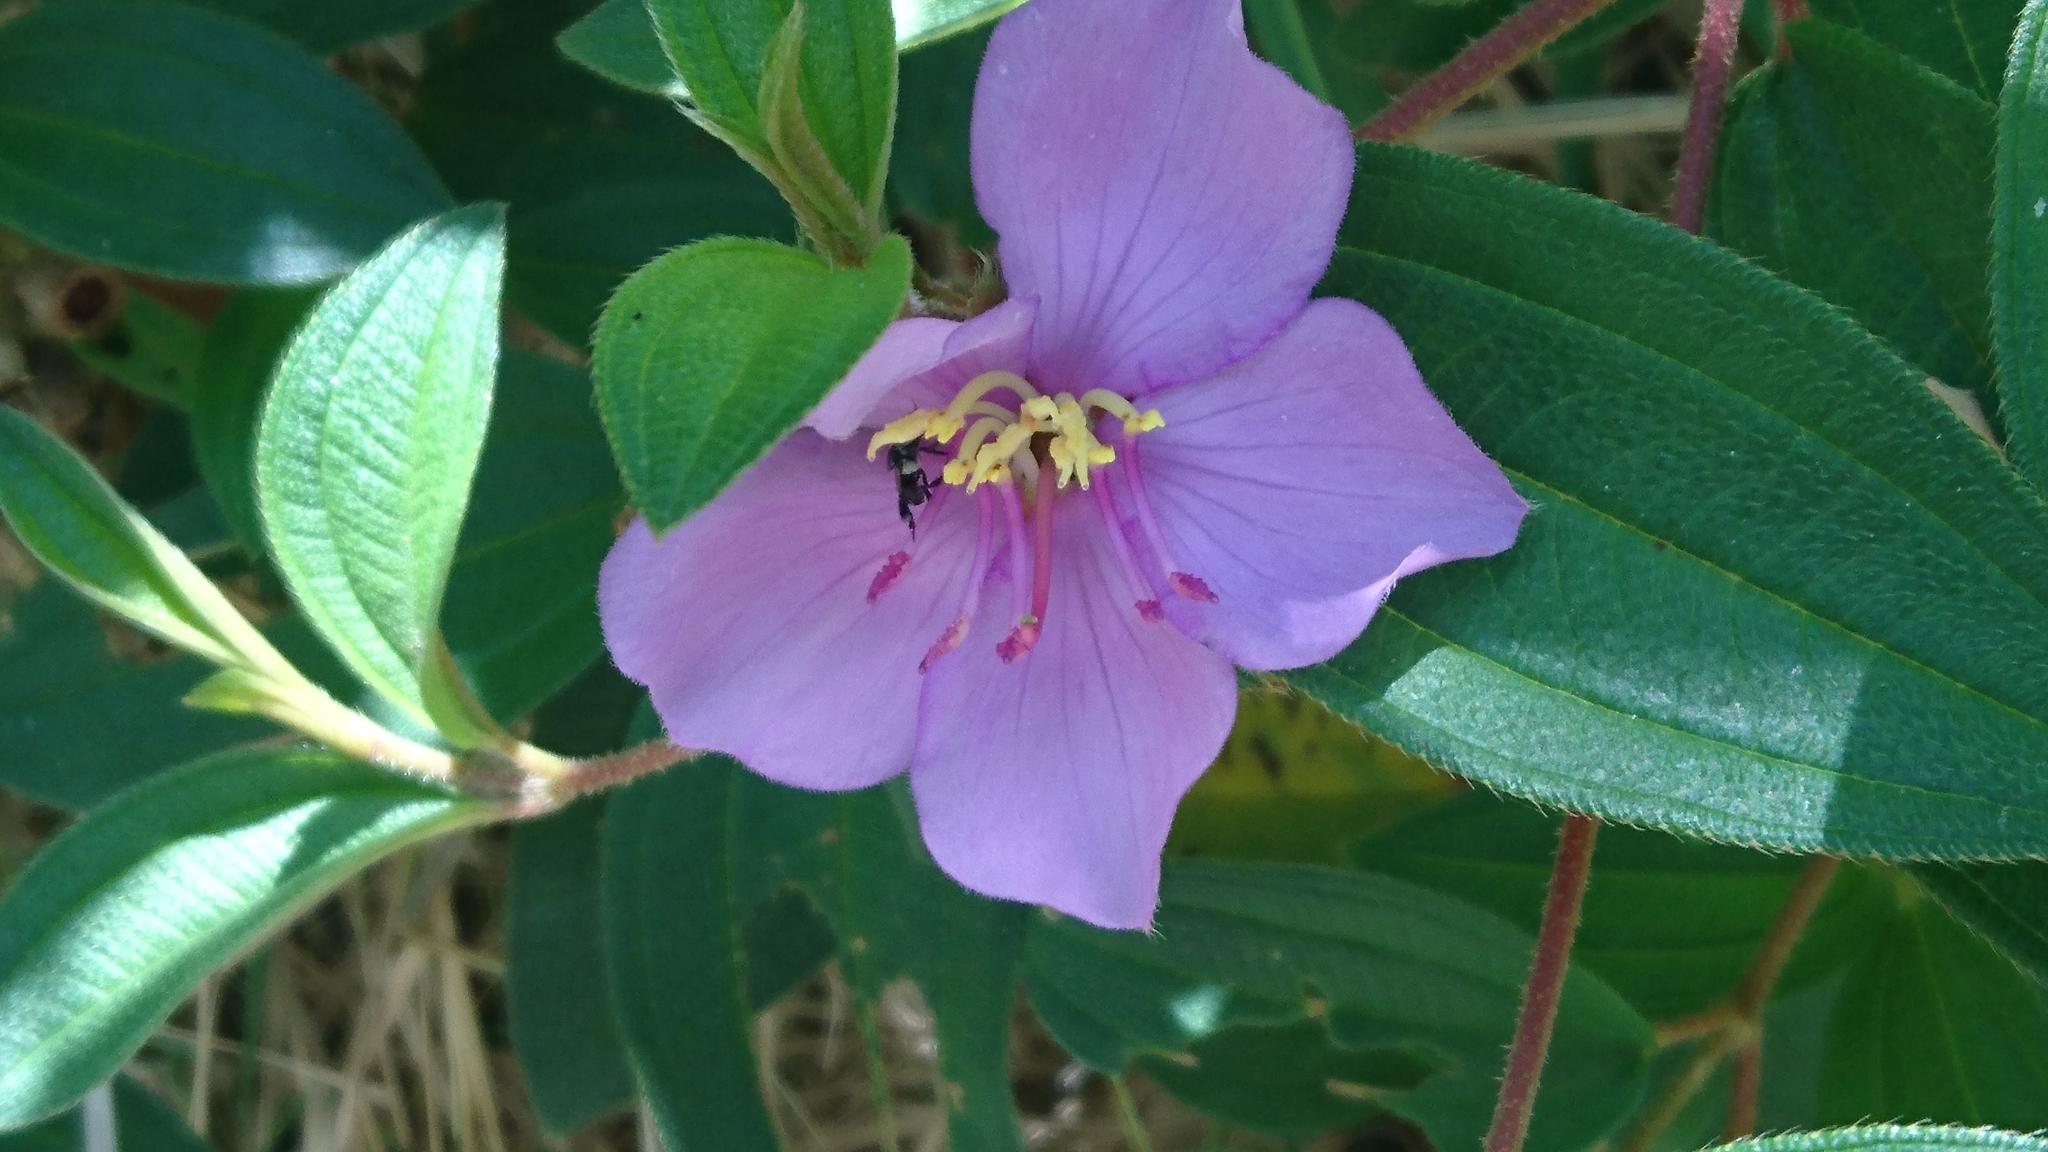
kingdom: Plantae
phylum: Tracheophyta
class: Magnoliopsida
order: Myrtales
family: Melastomataceae
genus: Melastoma
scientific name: Melastoma malabathricum
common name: Indian-rhododendron
